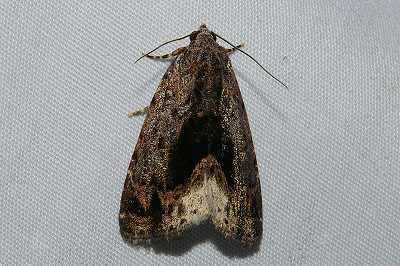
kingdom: Animalia
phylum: Arthropoda
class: Insecta
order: Lepidoptera
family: Noctuidae
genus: Iambia
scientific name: Iambia japonica
